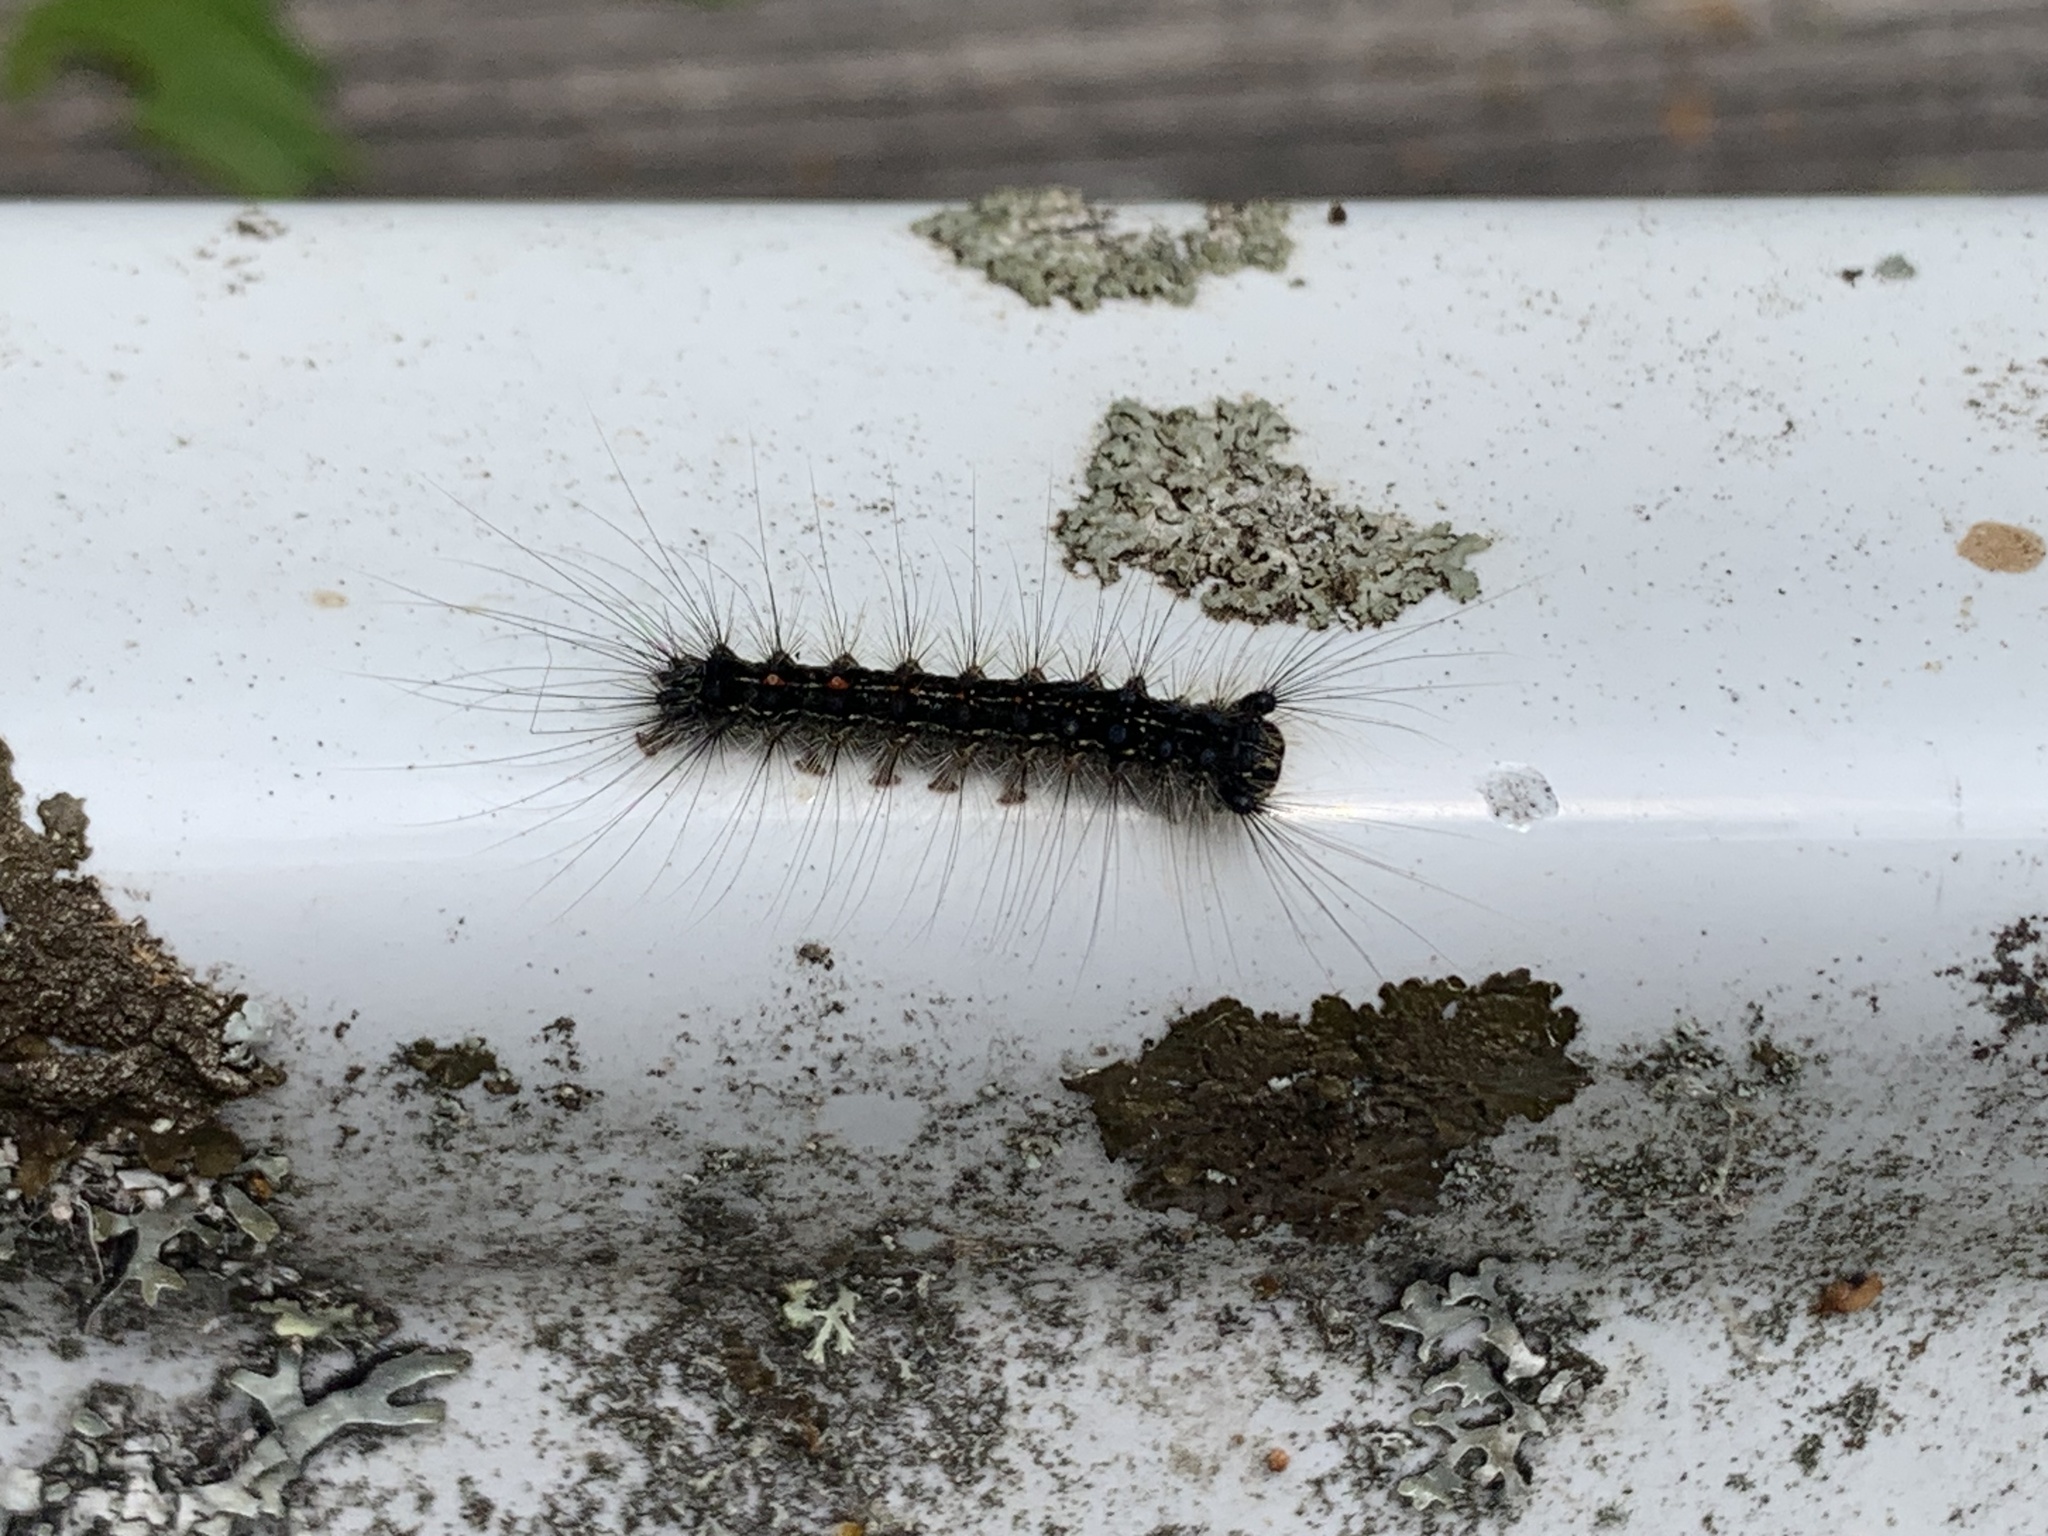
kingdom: Animalia
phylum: Arthropoda
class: Insecta
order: Lepidoptera
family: Erebidae
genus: Lymantria
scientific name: Lymantria dispar
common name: Gypsy moth
